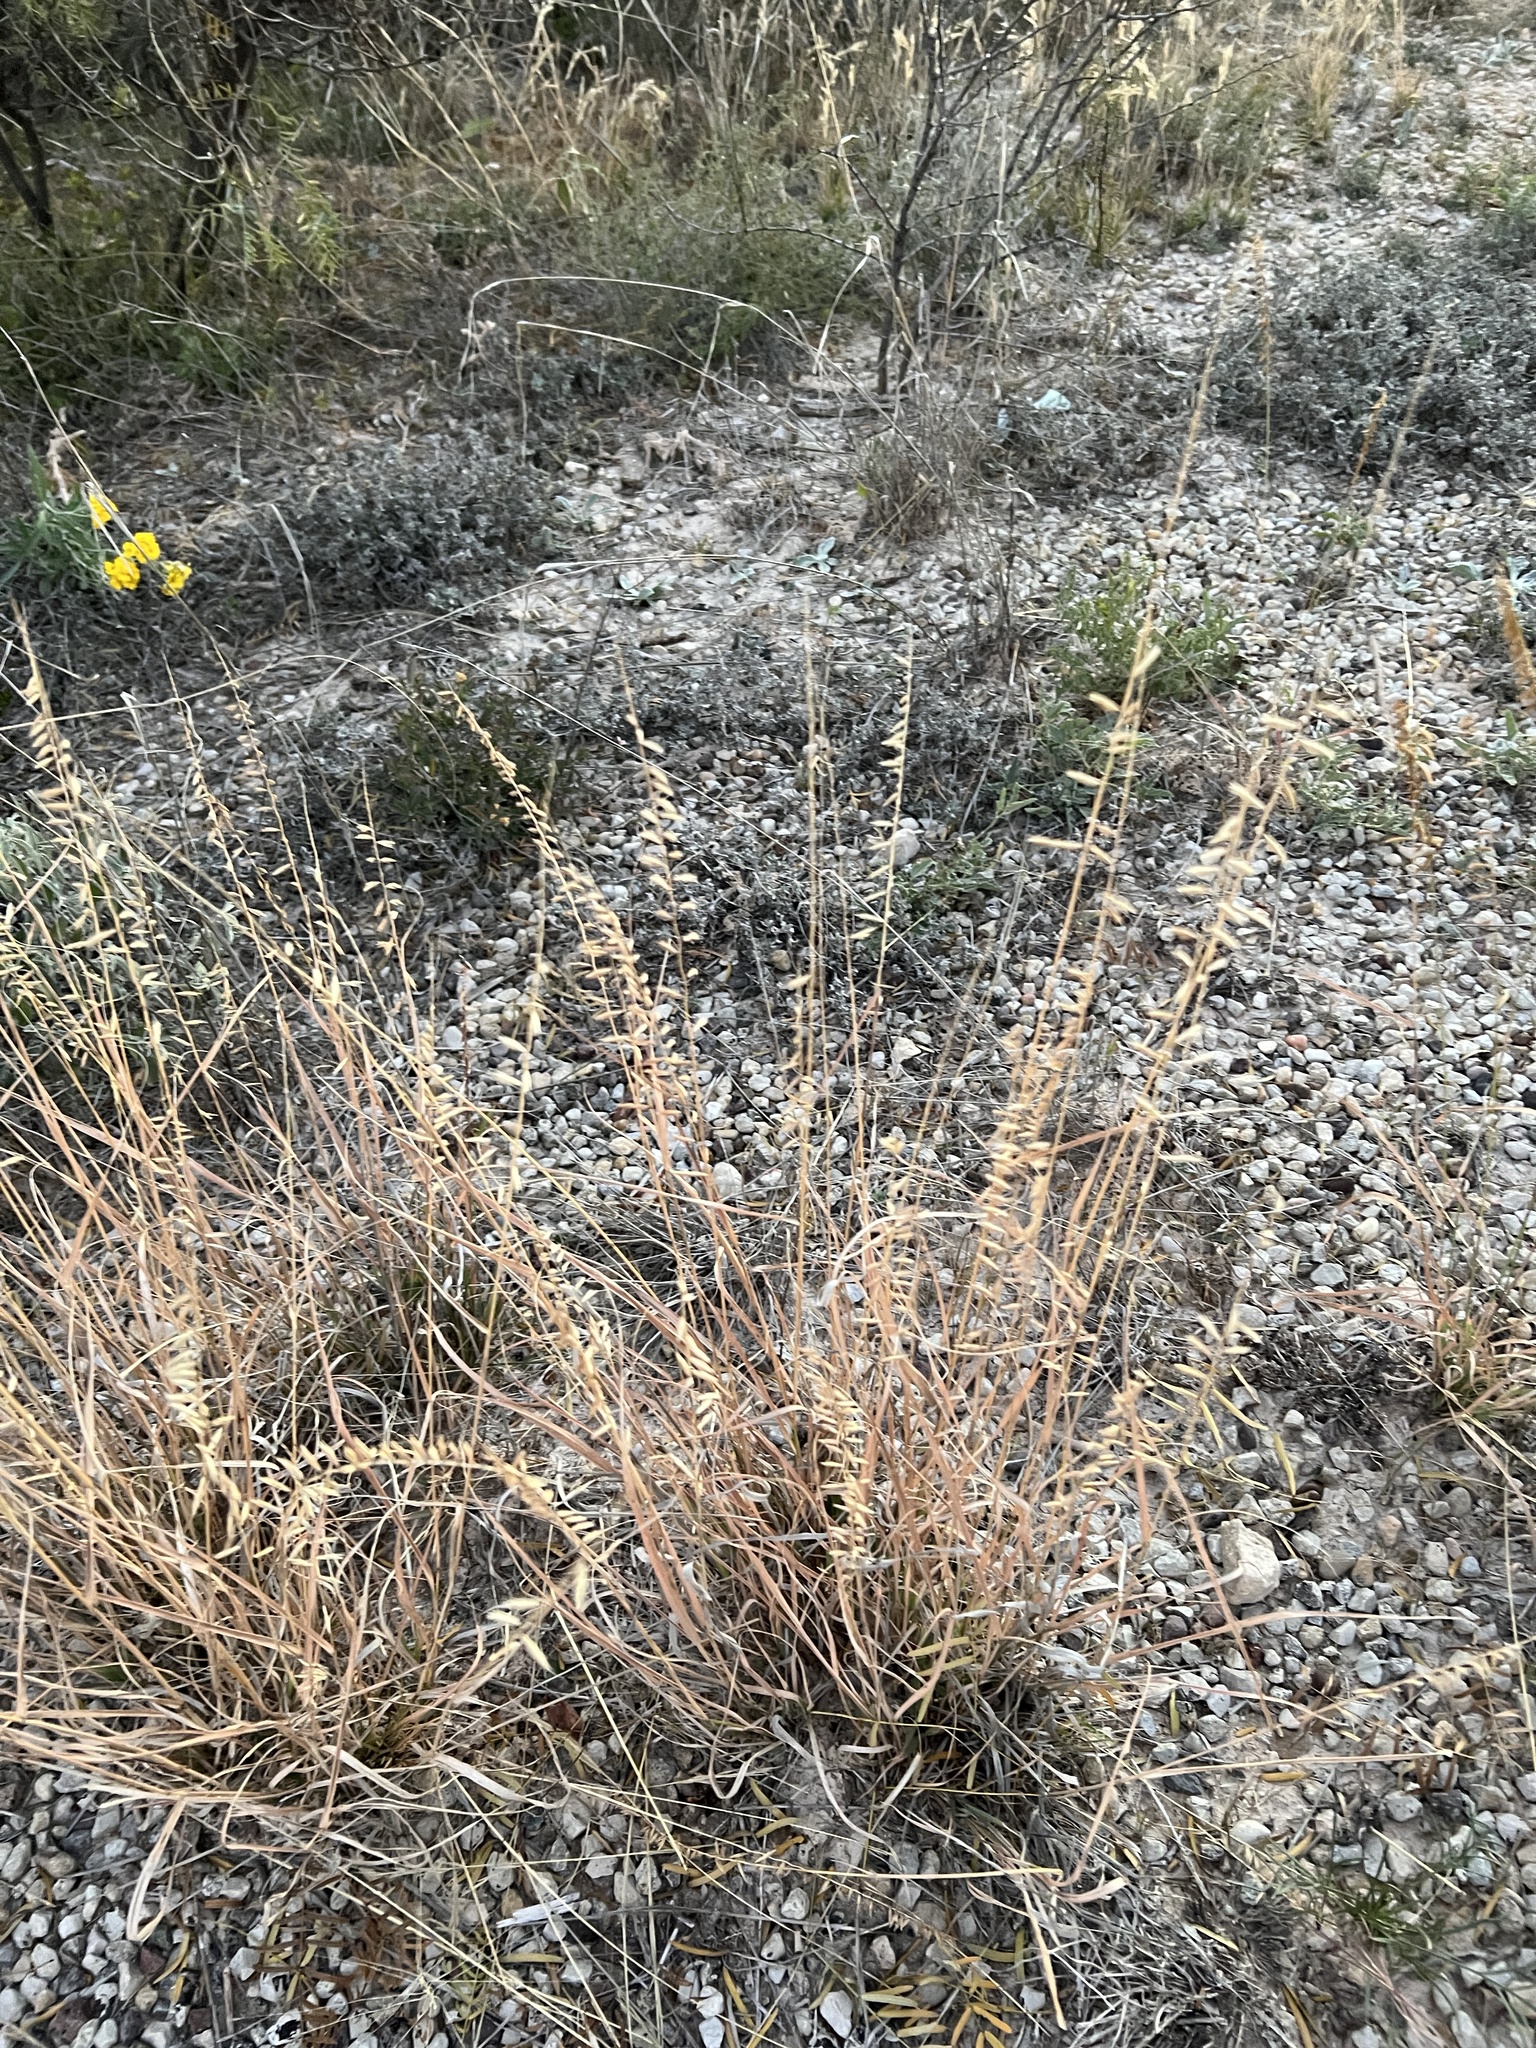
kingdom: Plantae
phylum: Tracheophyta
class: Liliopsida
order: Poales
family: Poaceae
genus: Bouteloua
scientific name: Bouteloua curtipendula
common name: Side-oats grama
